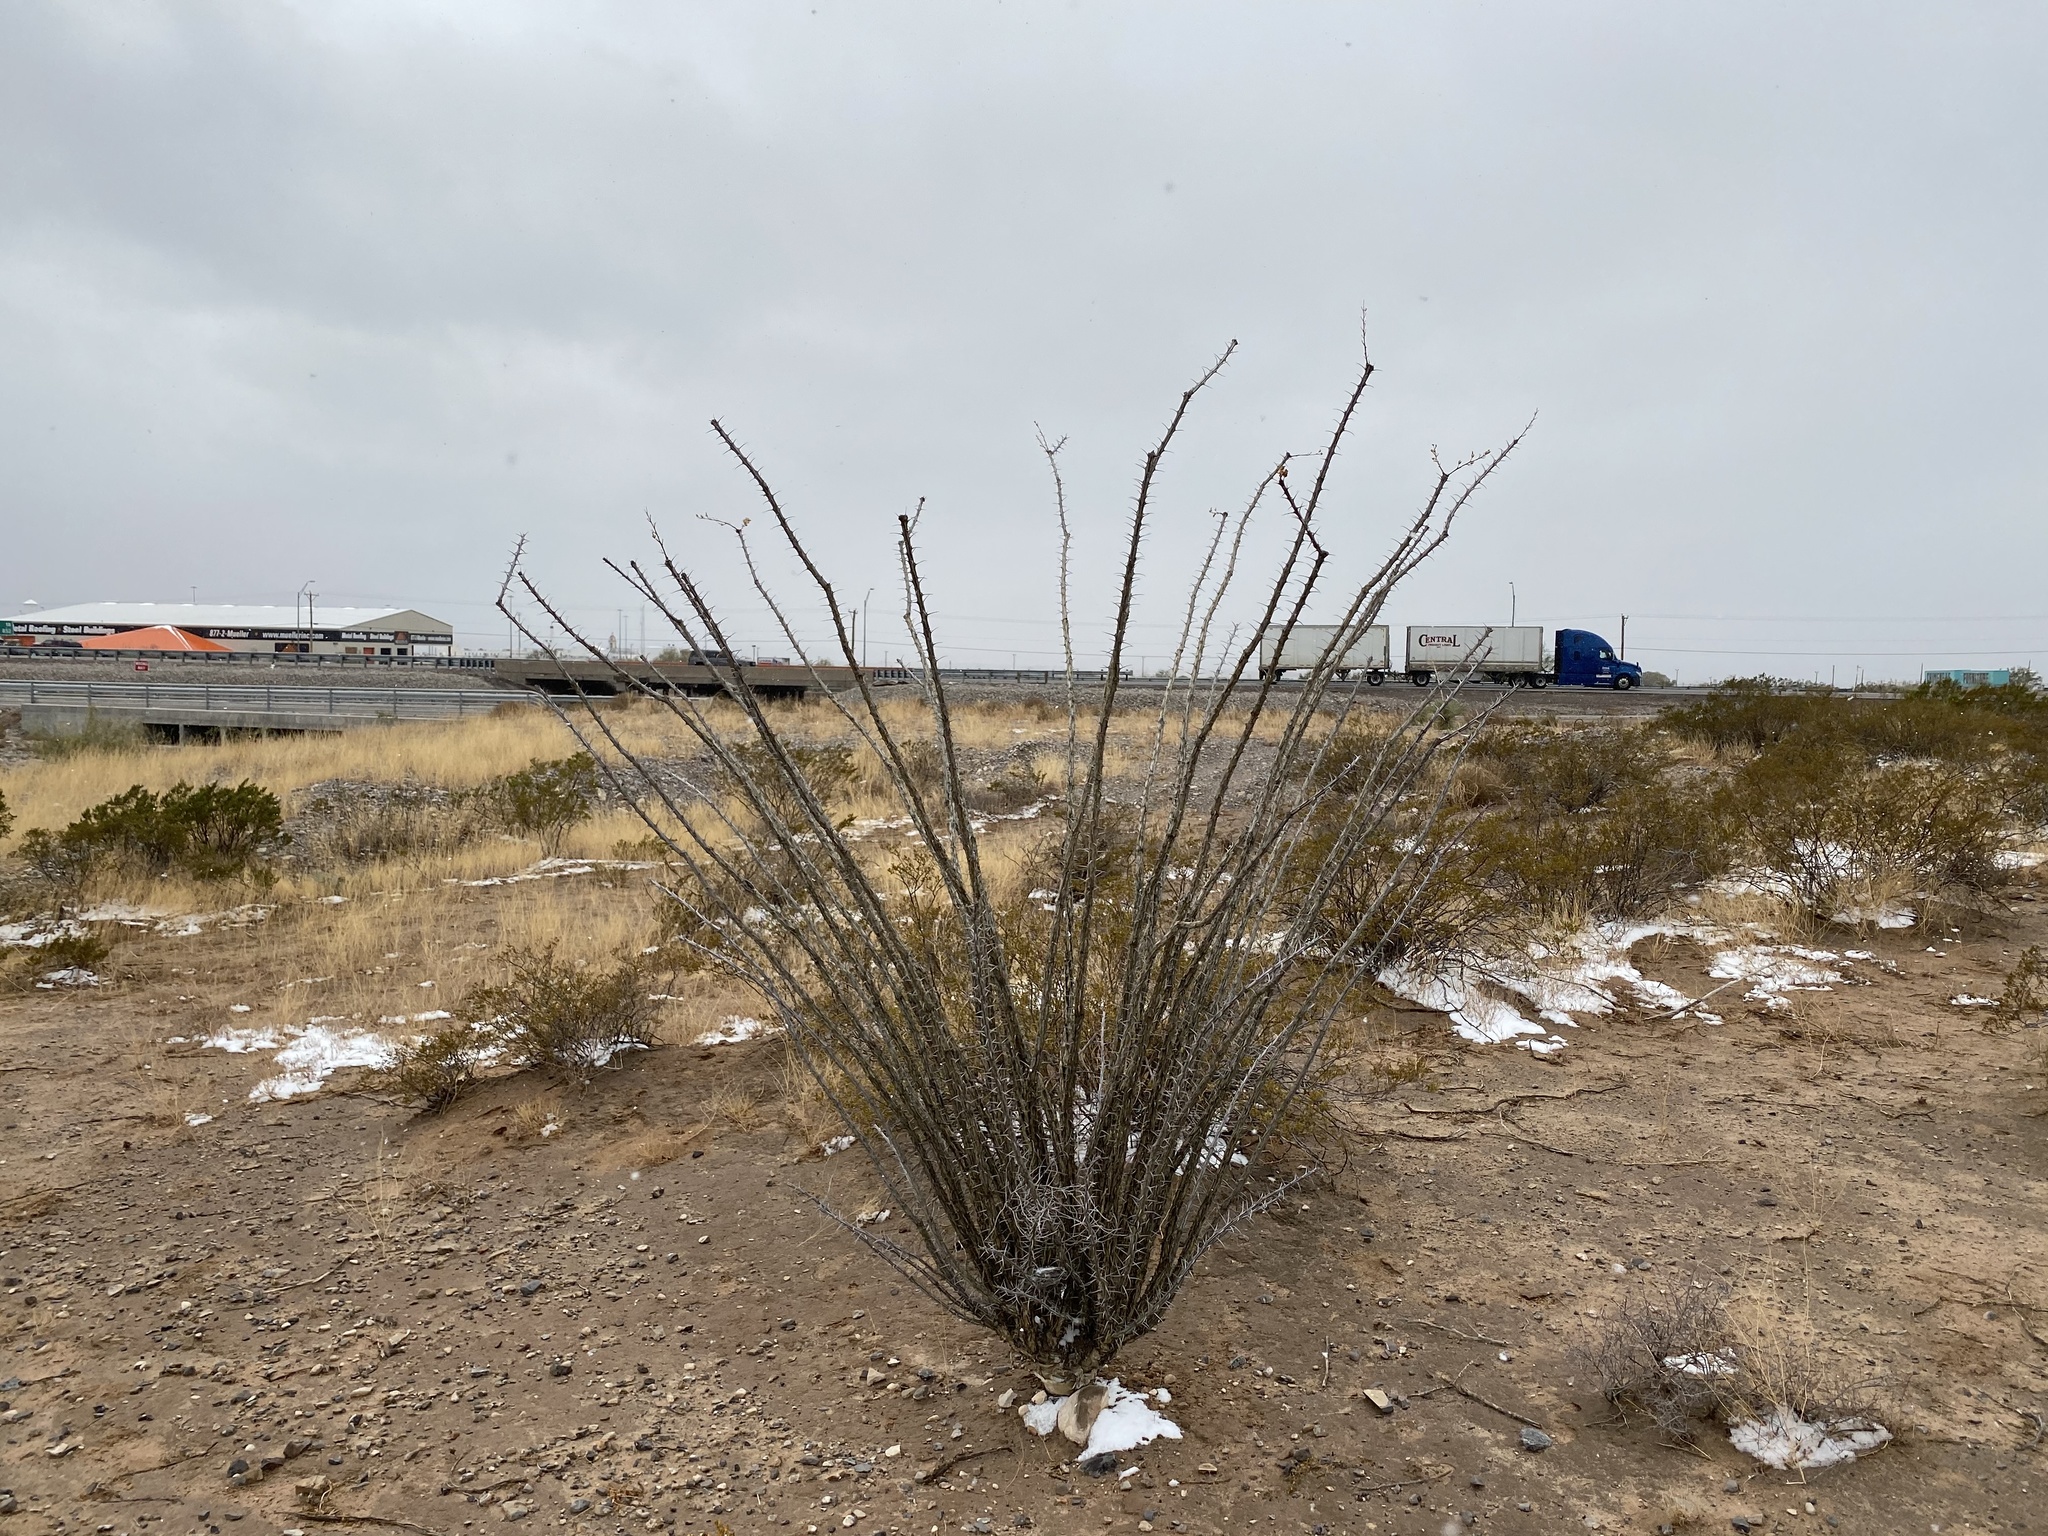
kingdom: Plantae
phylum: Tracheophyta
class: Magnoliopsida
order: Ericales
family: Fouquieriaceae
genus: Fouquieria
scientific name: Fouquieria splendens
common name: Vine-cactus
